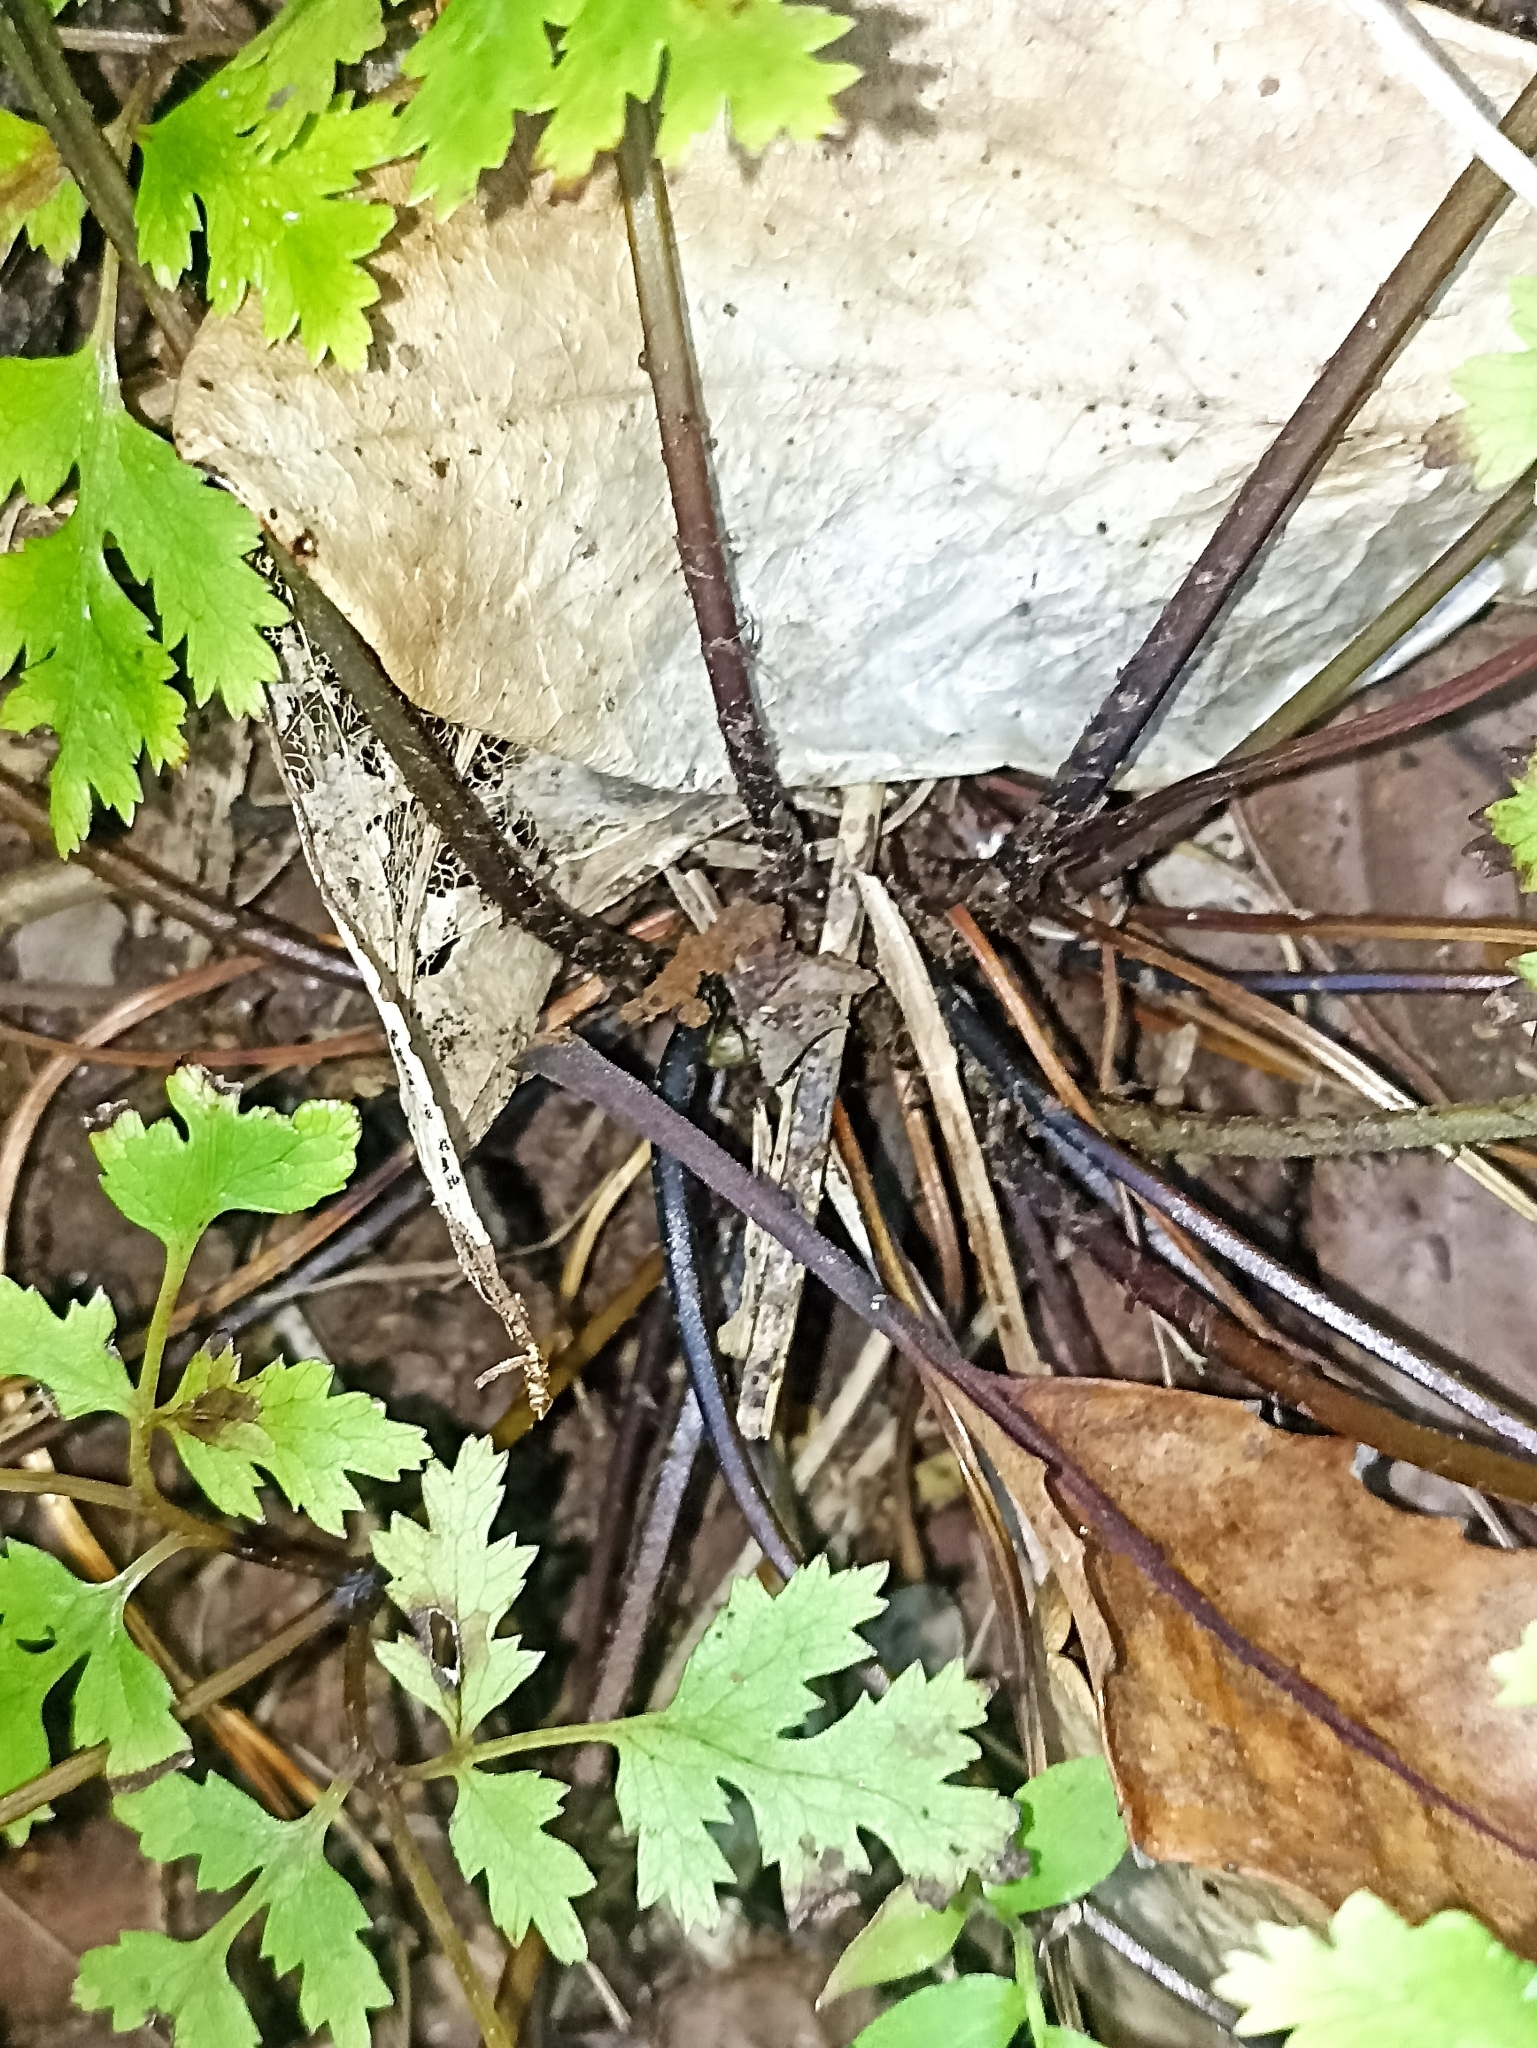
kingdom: Plantae
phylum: Tracheophyta
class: Polypodiopsida
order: Polypodiales
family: Pteridaceae
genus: Pteris
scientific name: Pteris saxatilis
